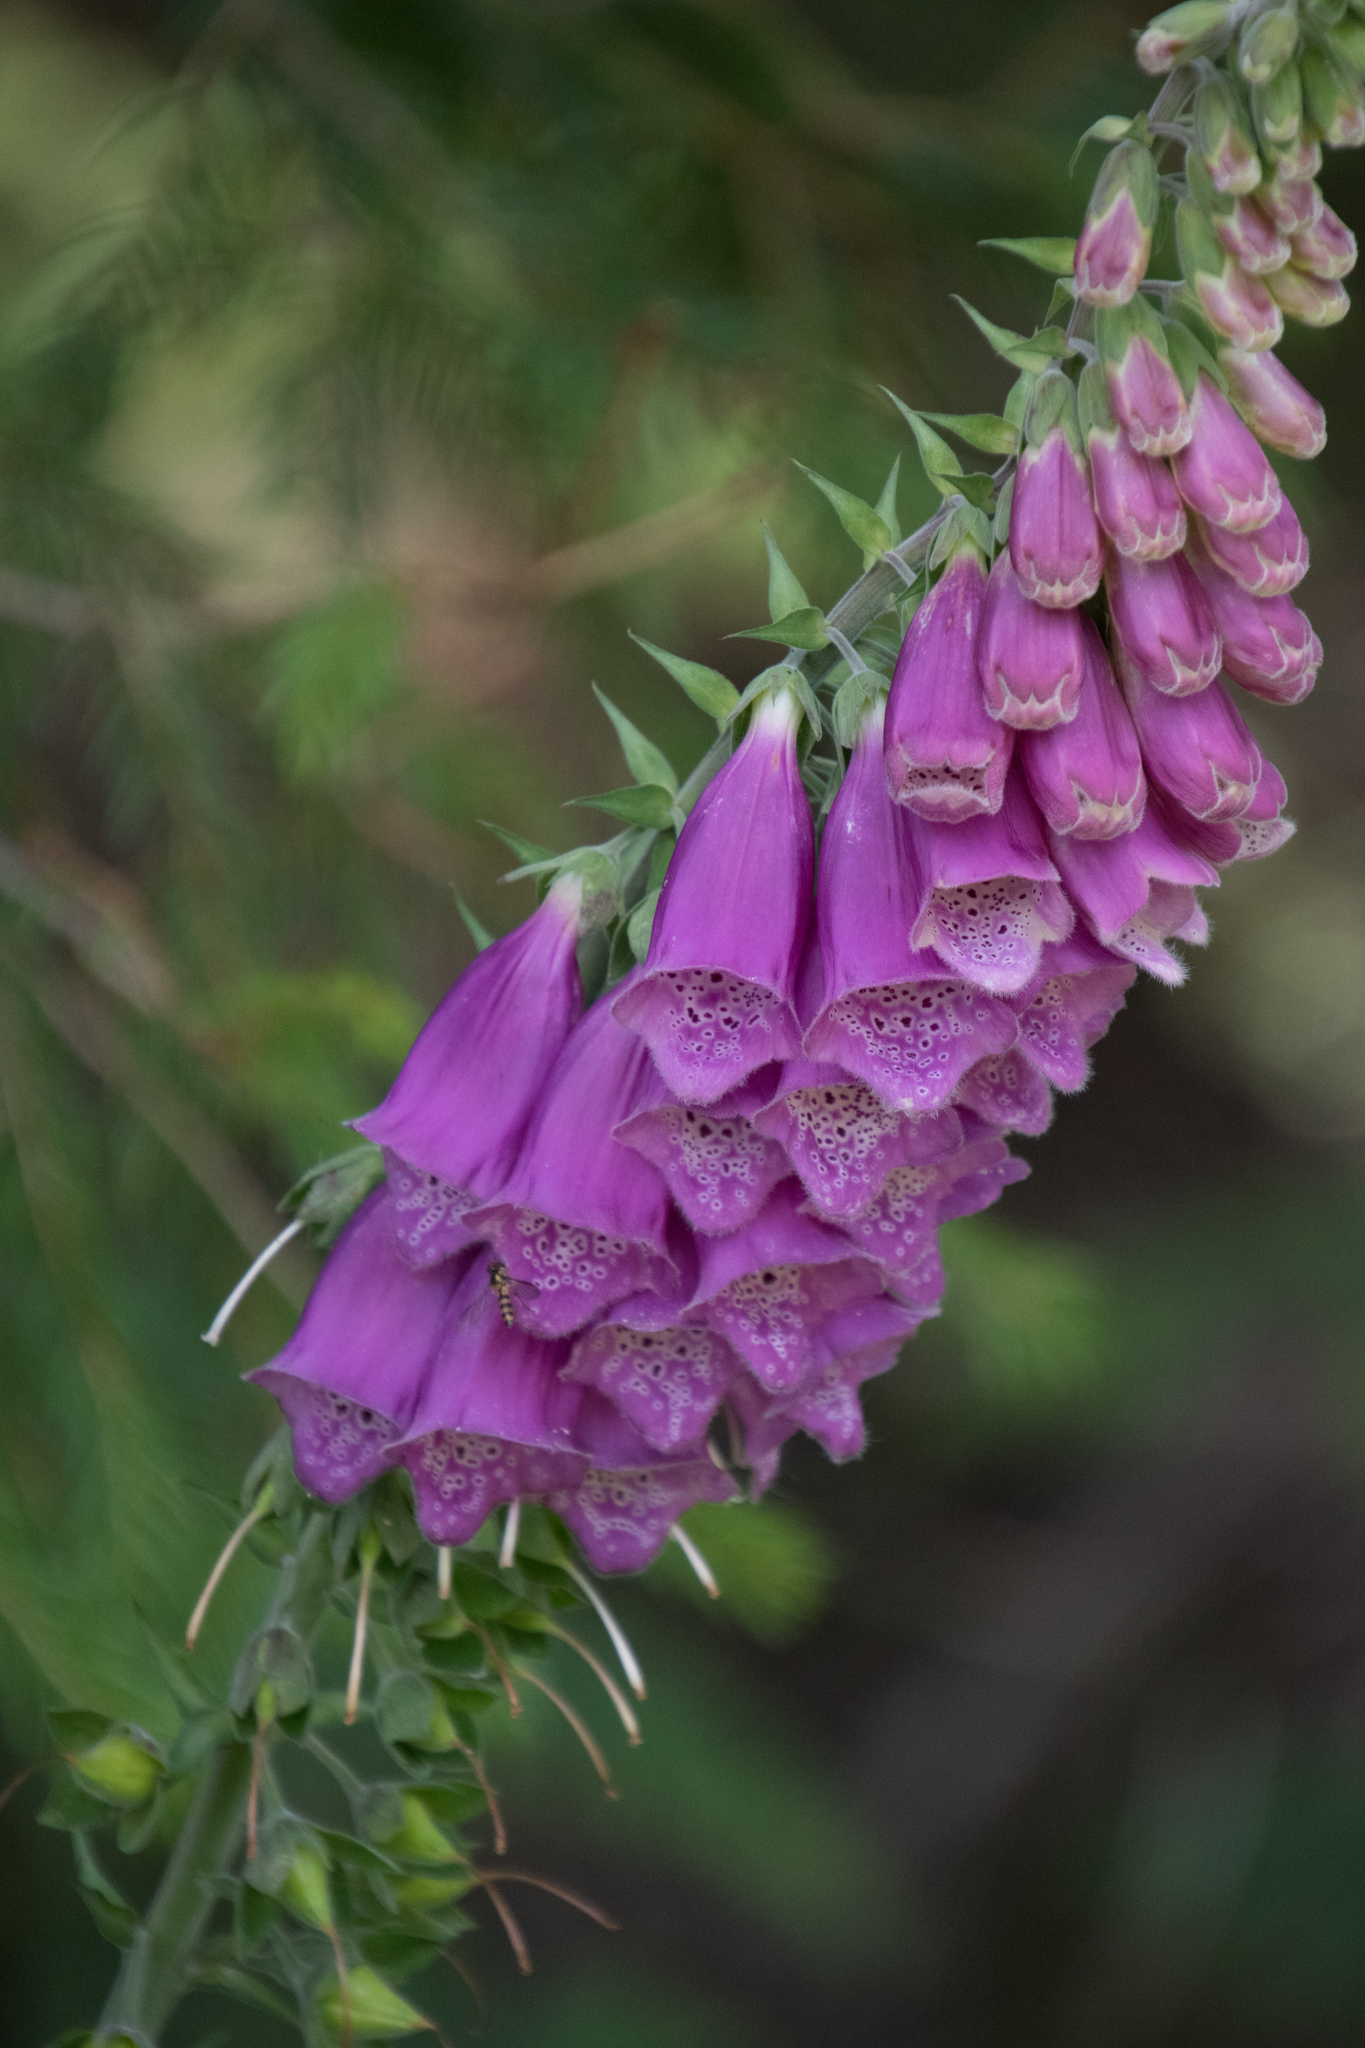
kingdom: Plantae
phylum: Tracheophyta
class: Magnoliopsida
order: Lamiales
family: Plantaginaceae
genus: Digitalis
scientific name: Digitalis purpurea
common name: Foxglove
